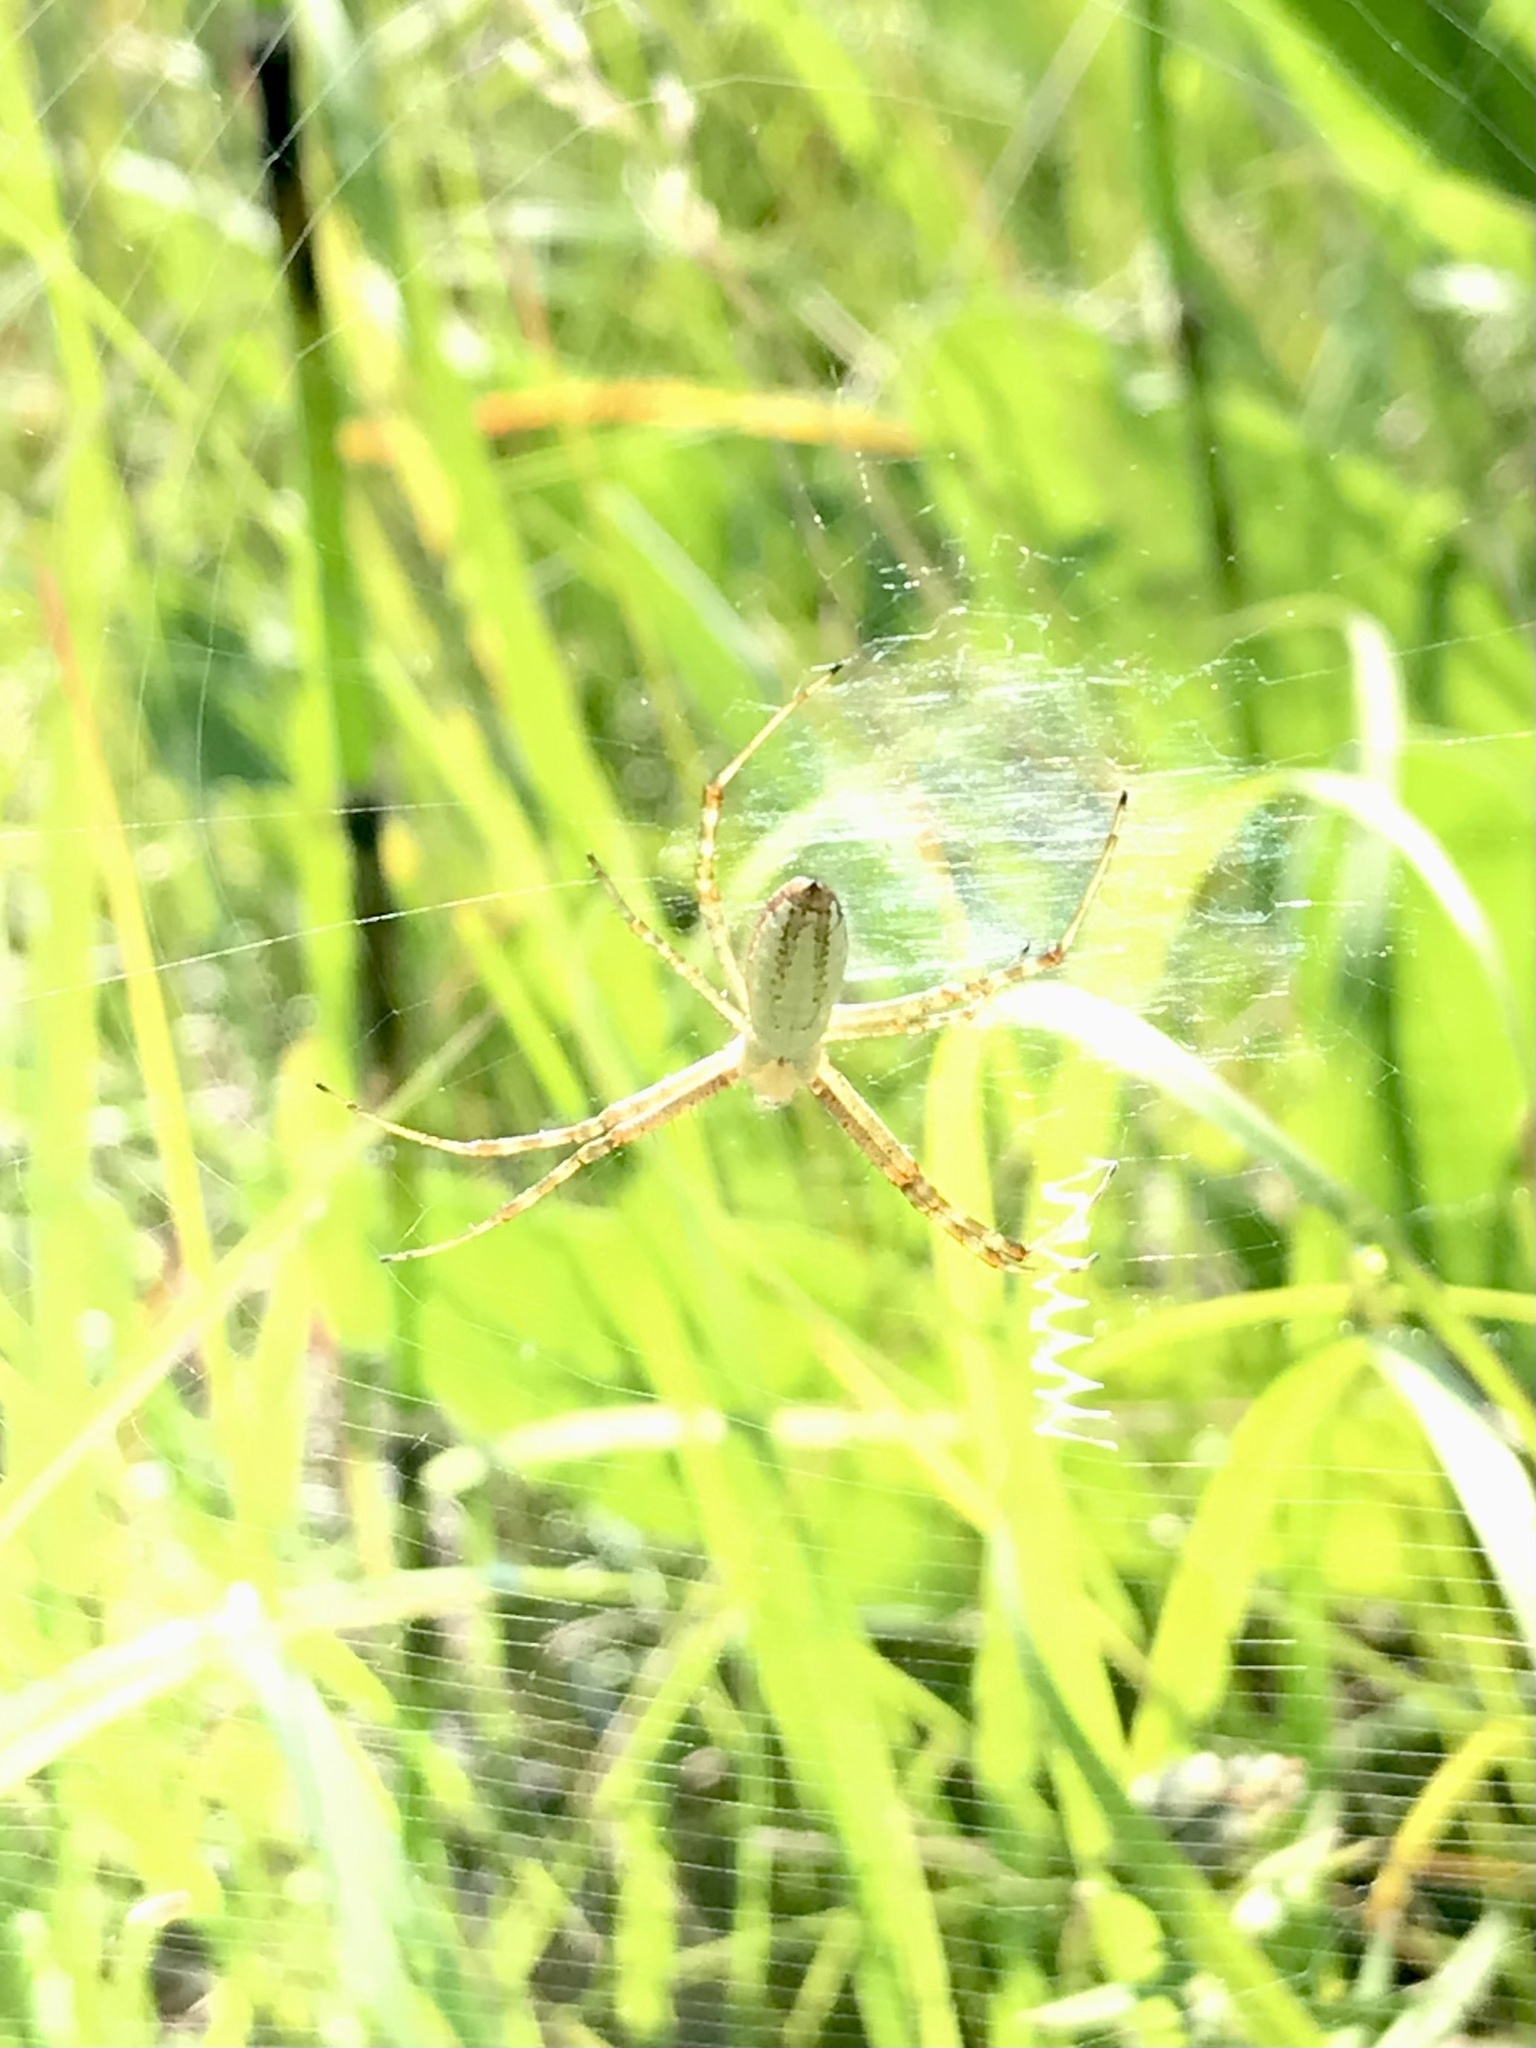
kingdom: Animalia
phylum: Arthropoda
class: Arachnida
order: Araneae
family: Araneidae
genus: Argiope
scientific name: Argiope trifasciata
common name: Banded garden spider
